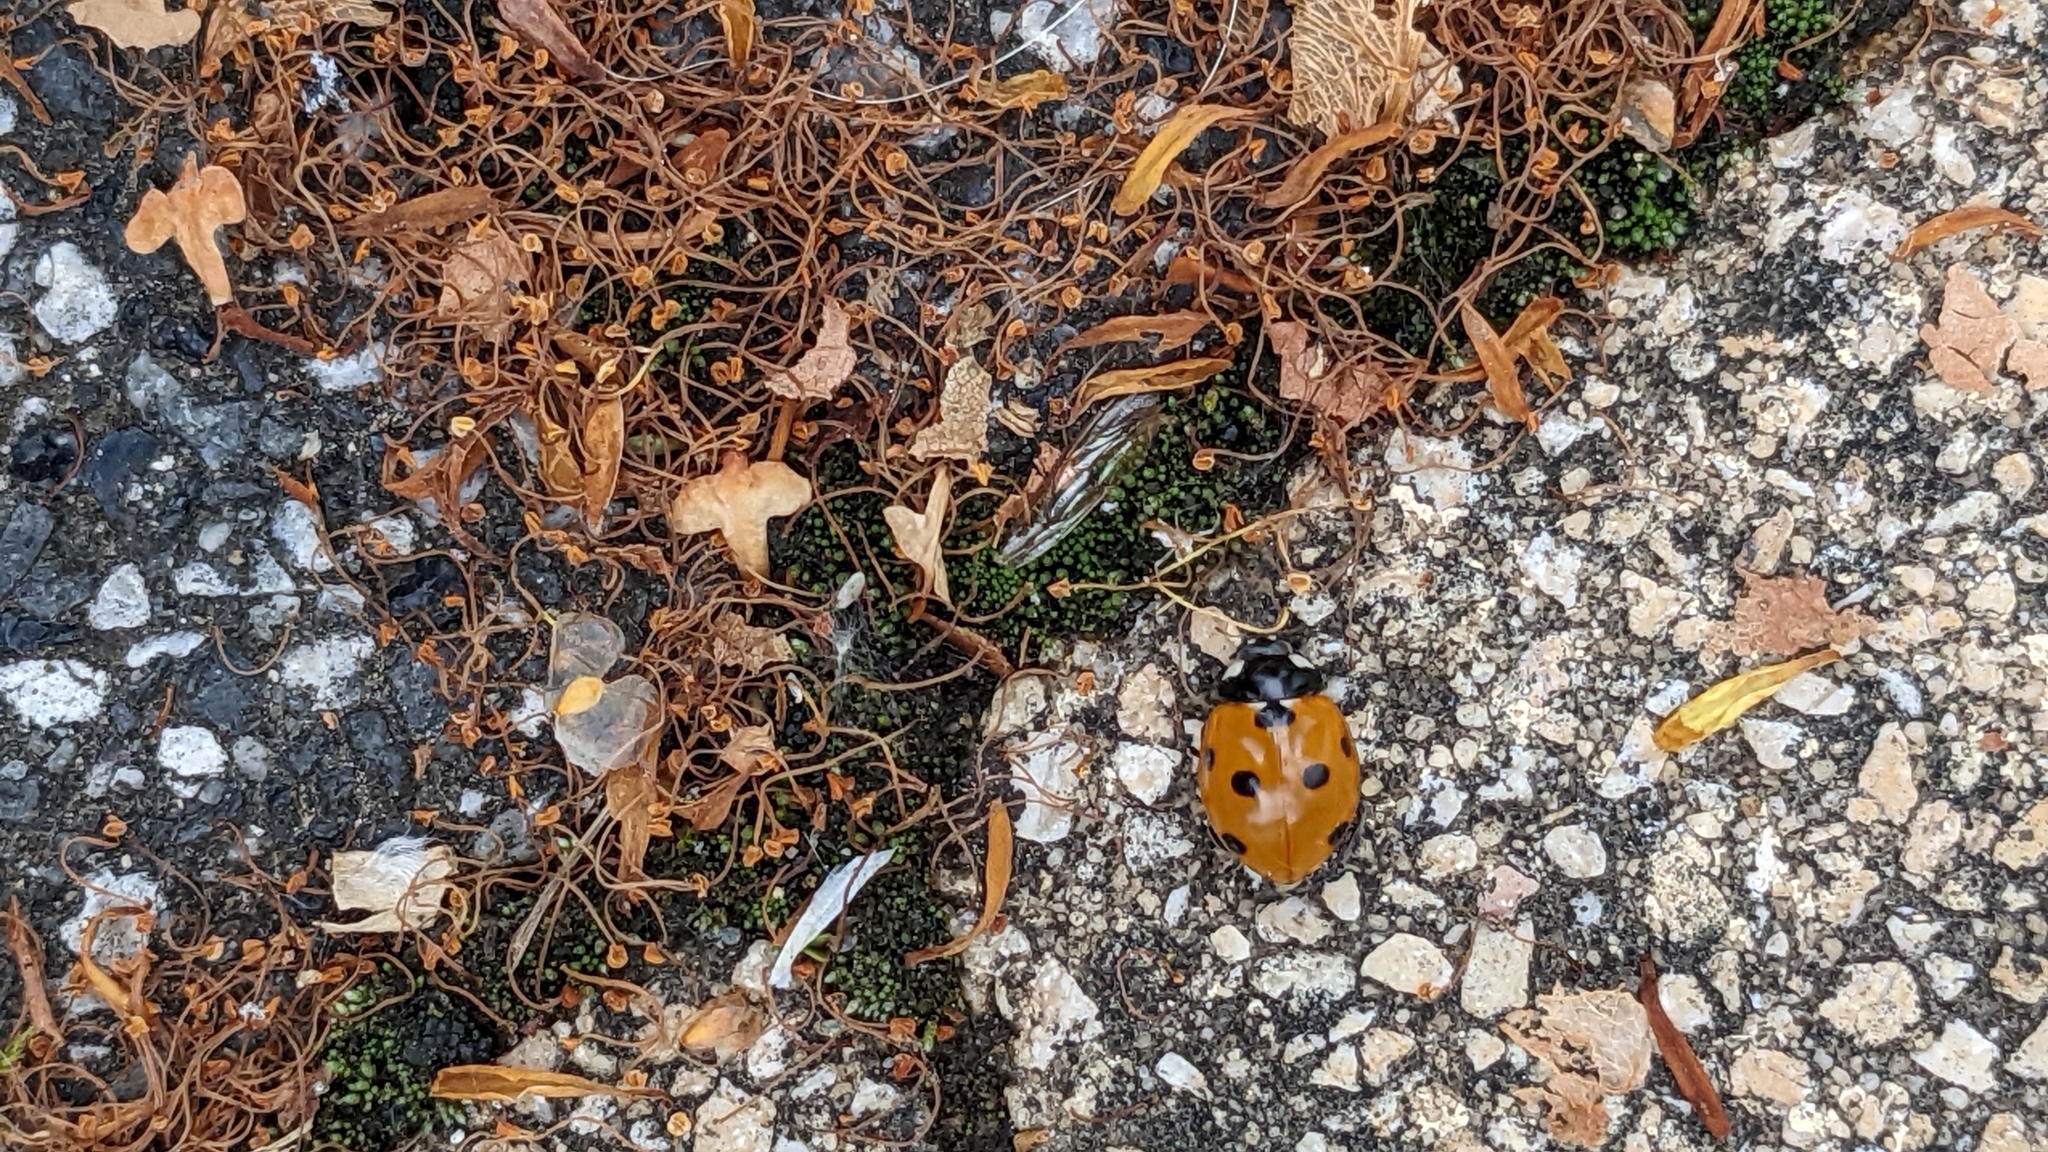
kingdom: Animalia
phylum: Arthropoda
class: Insecta
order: Coleoptera
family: Coccinellidae
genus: Coccinella
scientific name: Coccinella septempunctata
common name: Sevenspotted lady beetle
